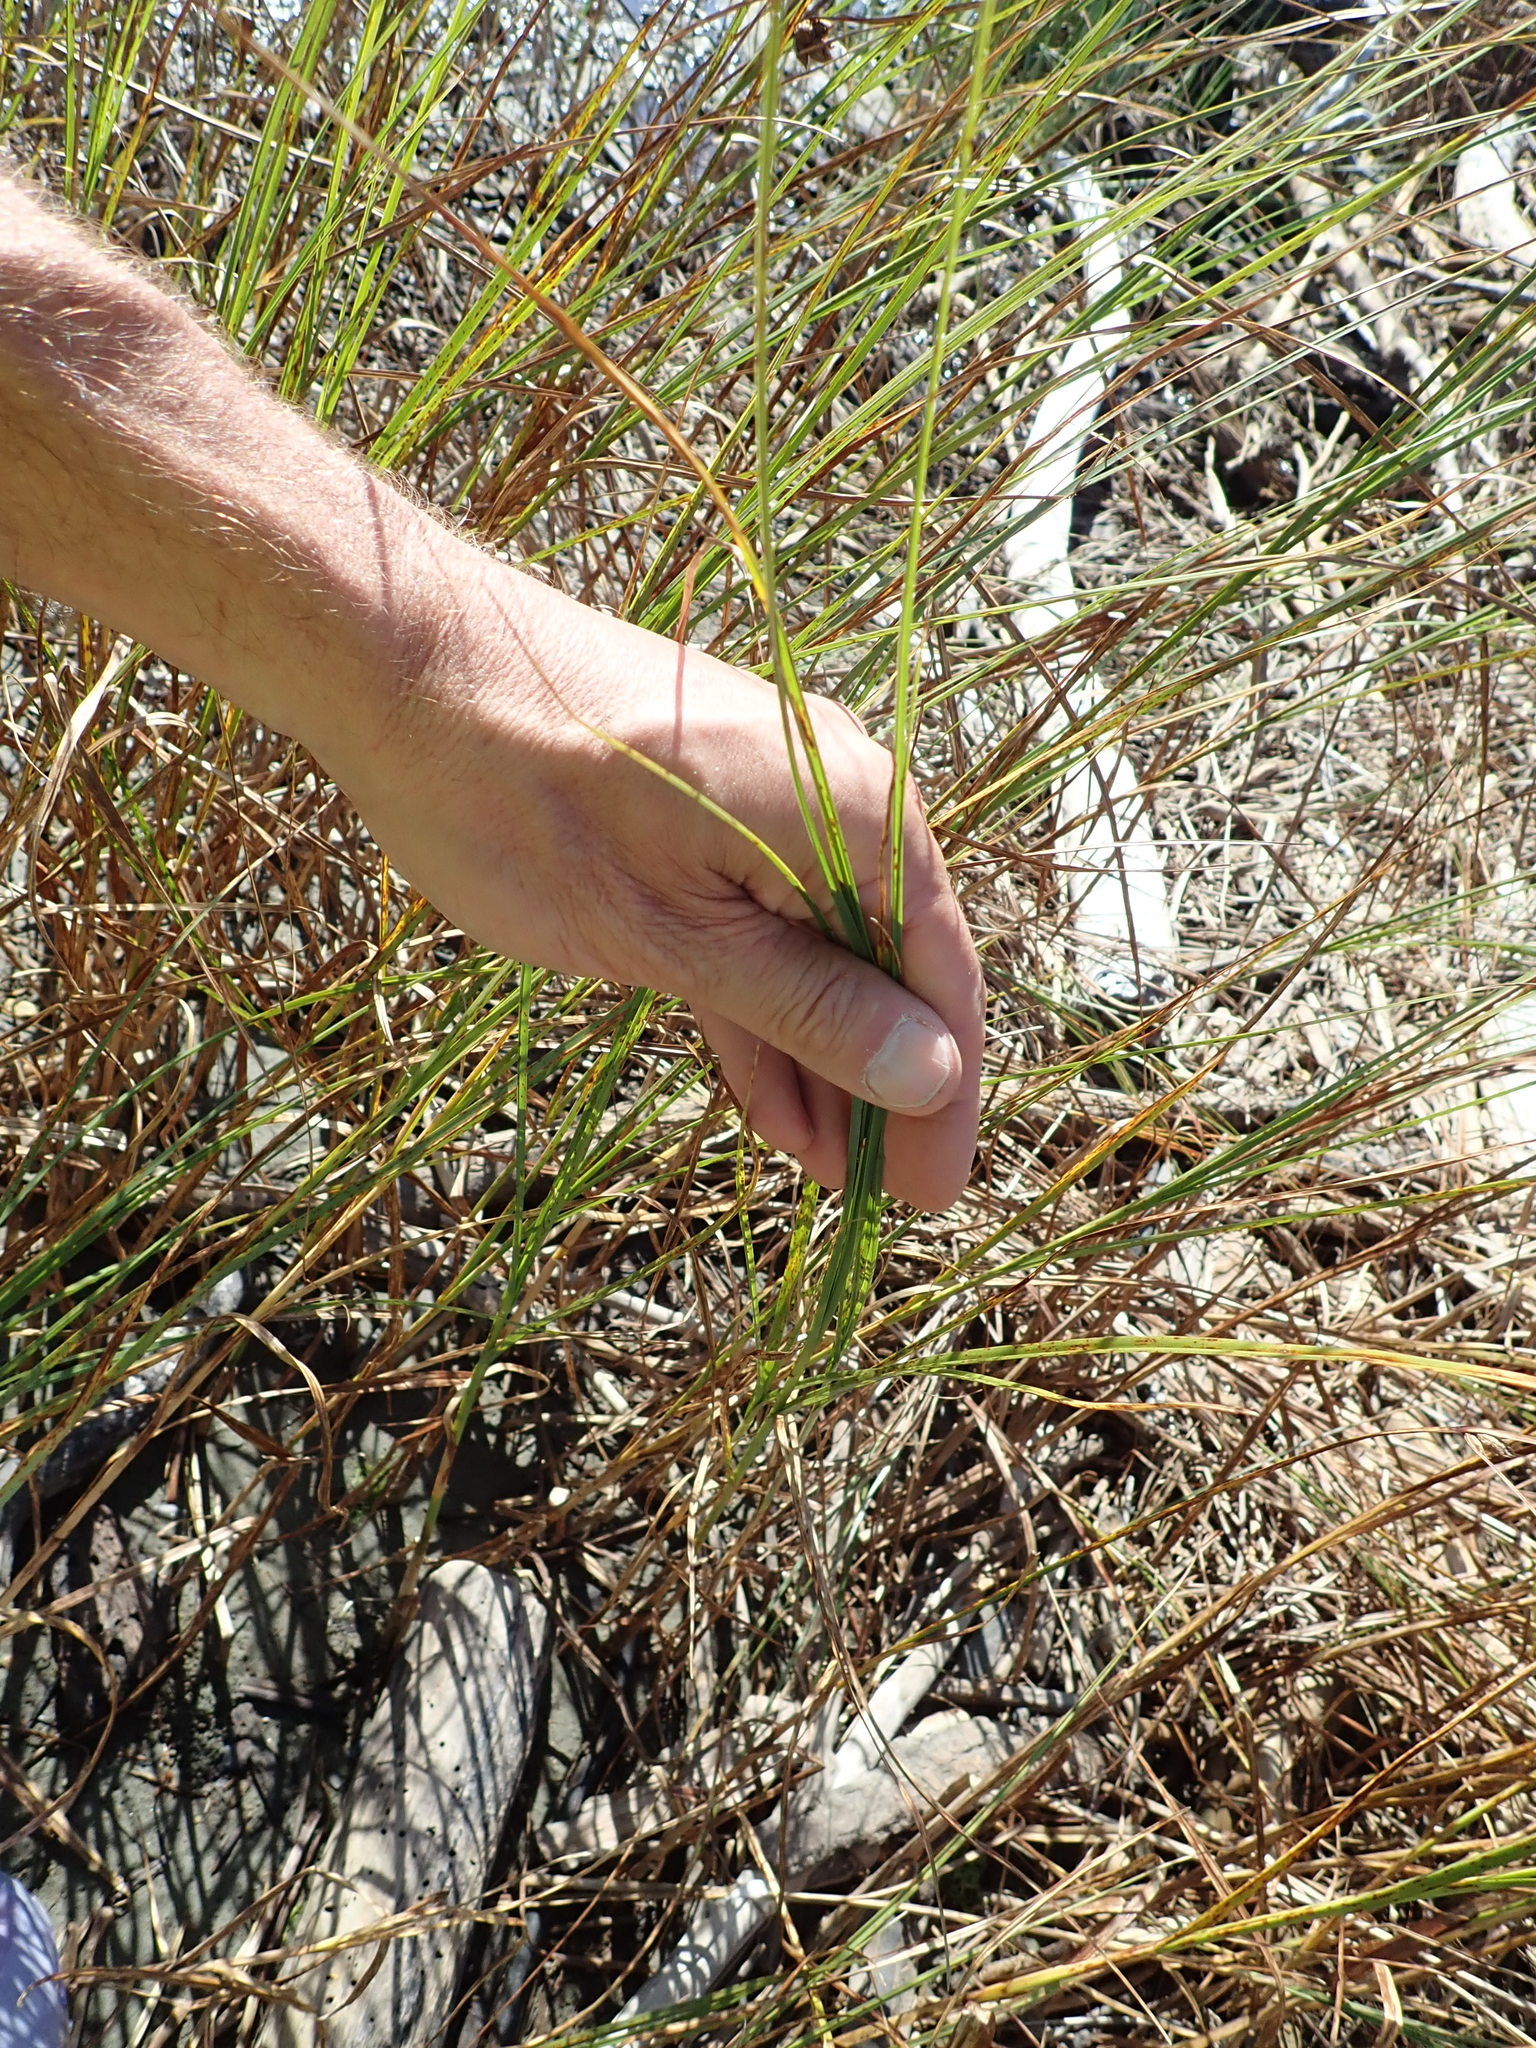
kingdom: Plantae
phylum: Tracheophyta
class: Liliopsida
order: Poales
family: Cyperaceae
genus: Bolboschoenus
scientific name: Bolboschoenus caldwellii
